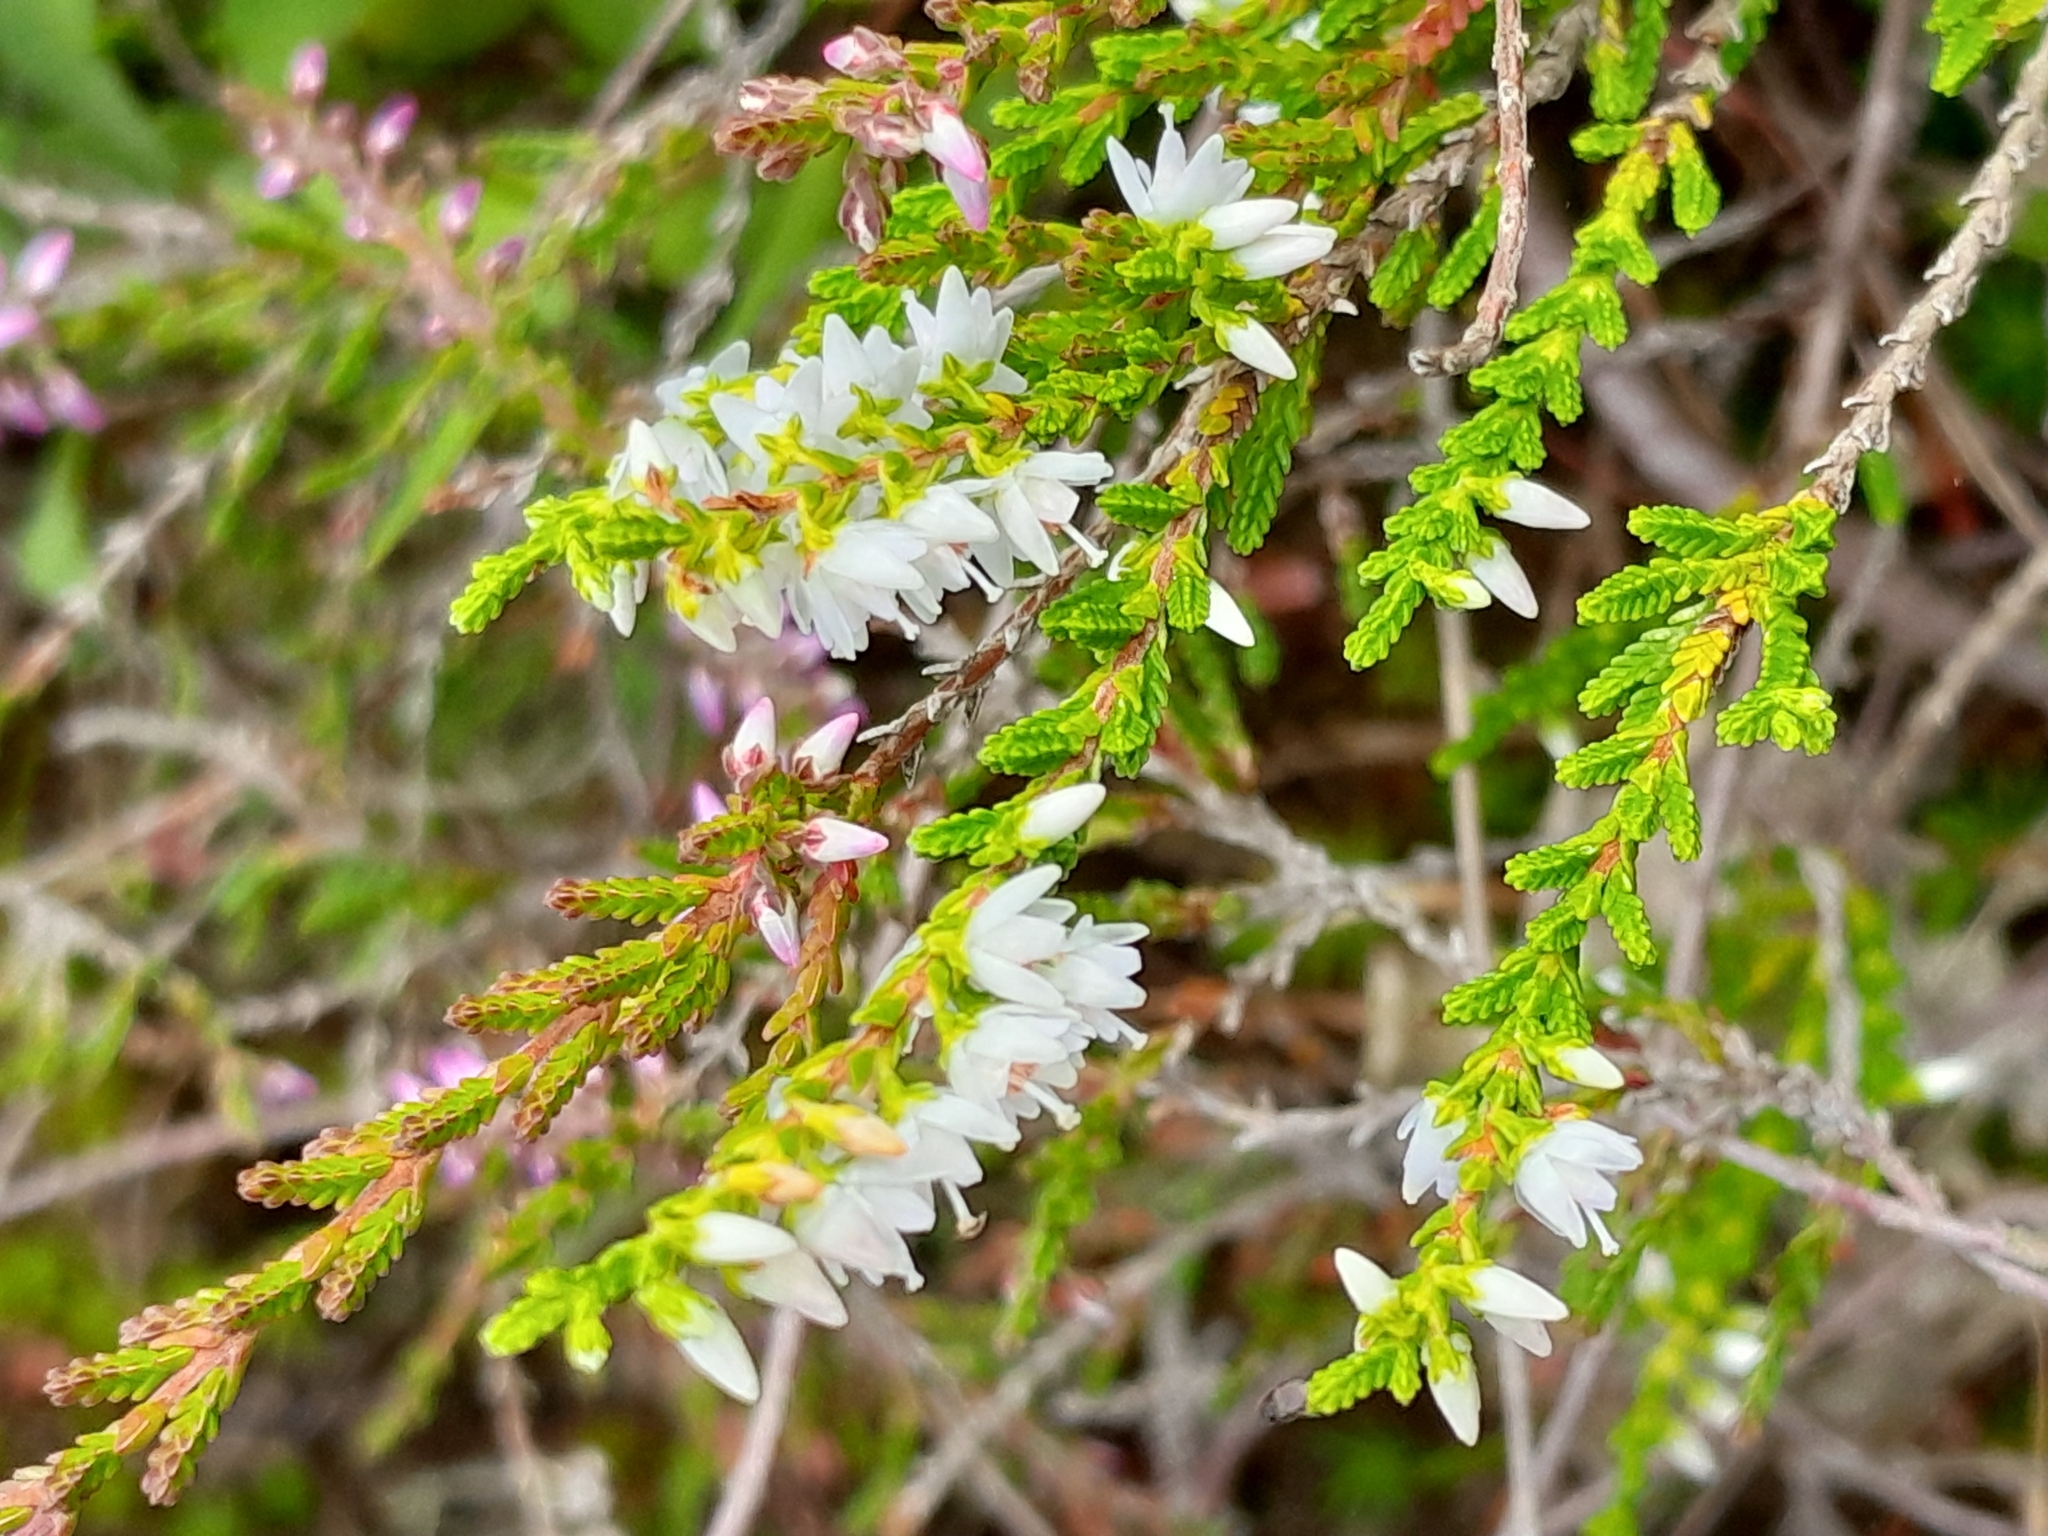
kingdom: Plantae
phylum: Tracheophyta
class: Magnoliopsida
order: Ericales
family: Ericaceae
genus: Calluna
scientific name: Calluna vulgaris
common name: Heather
